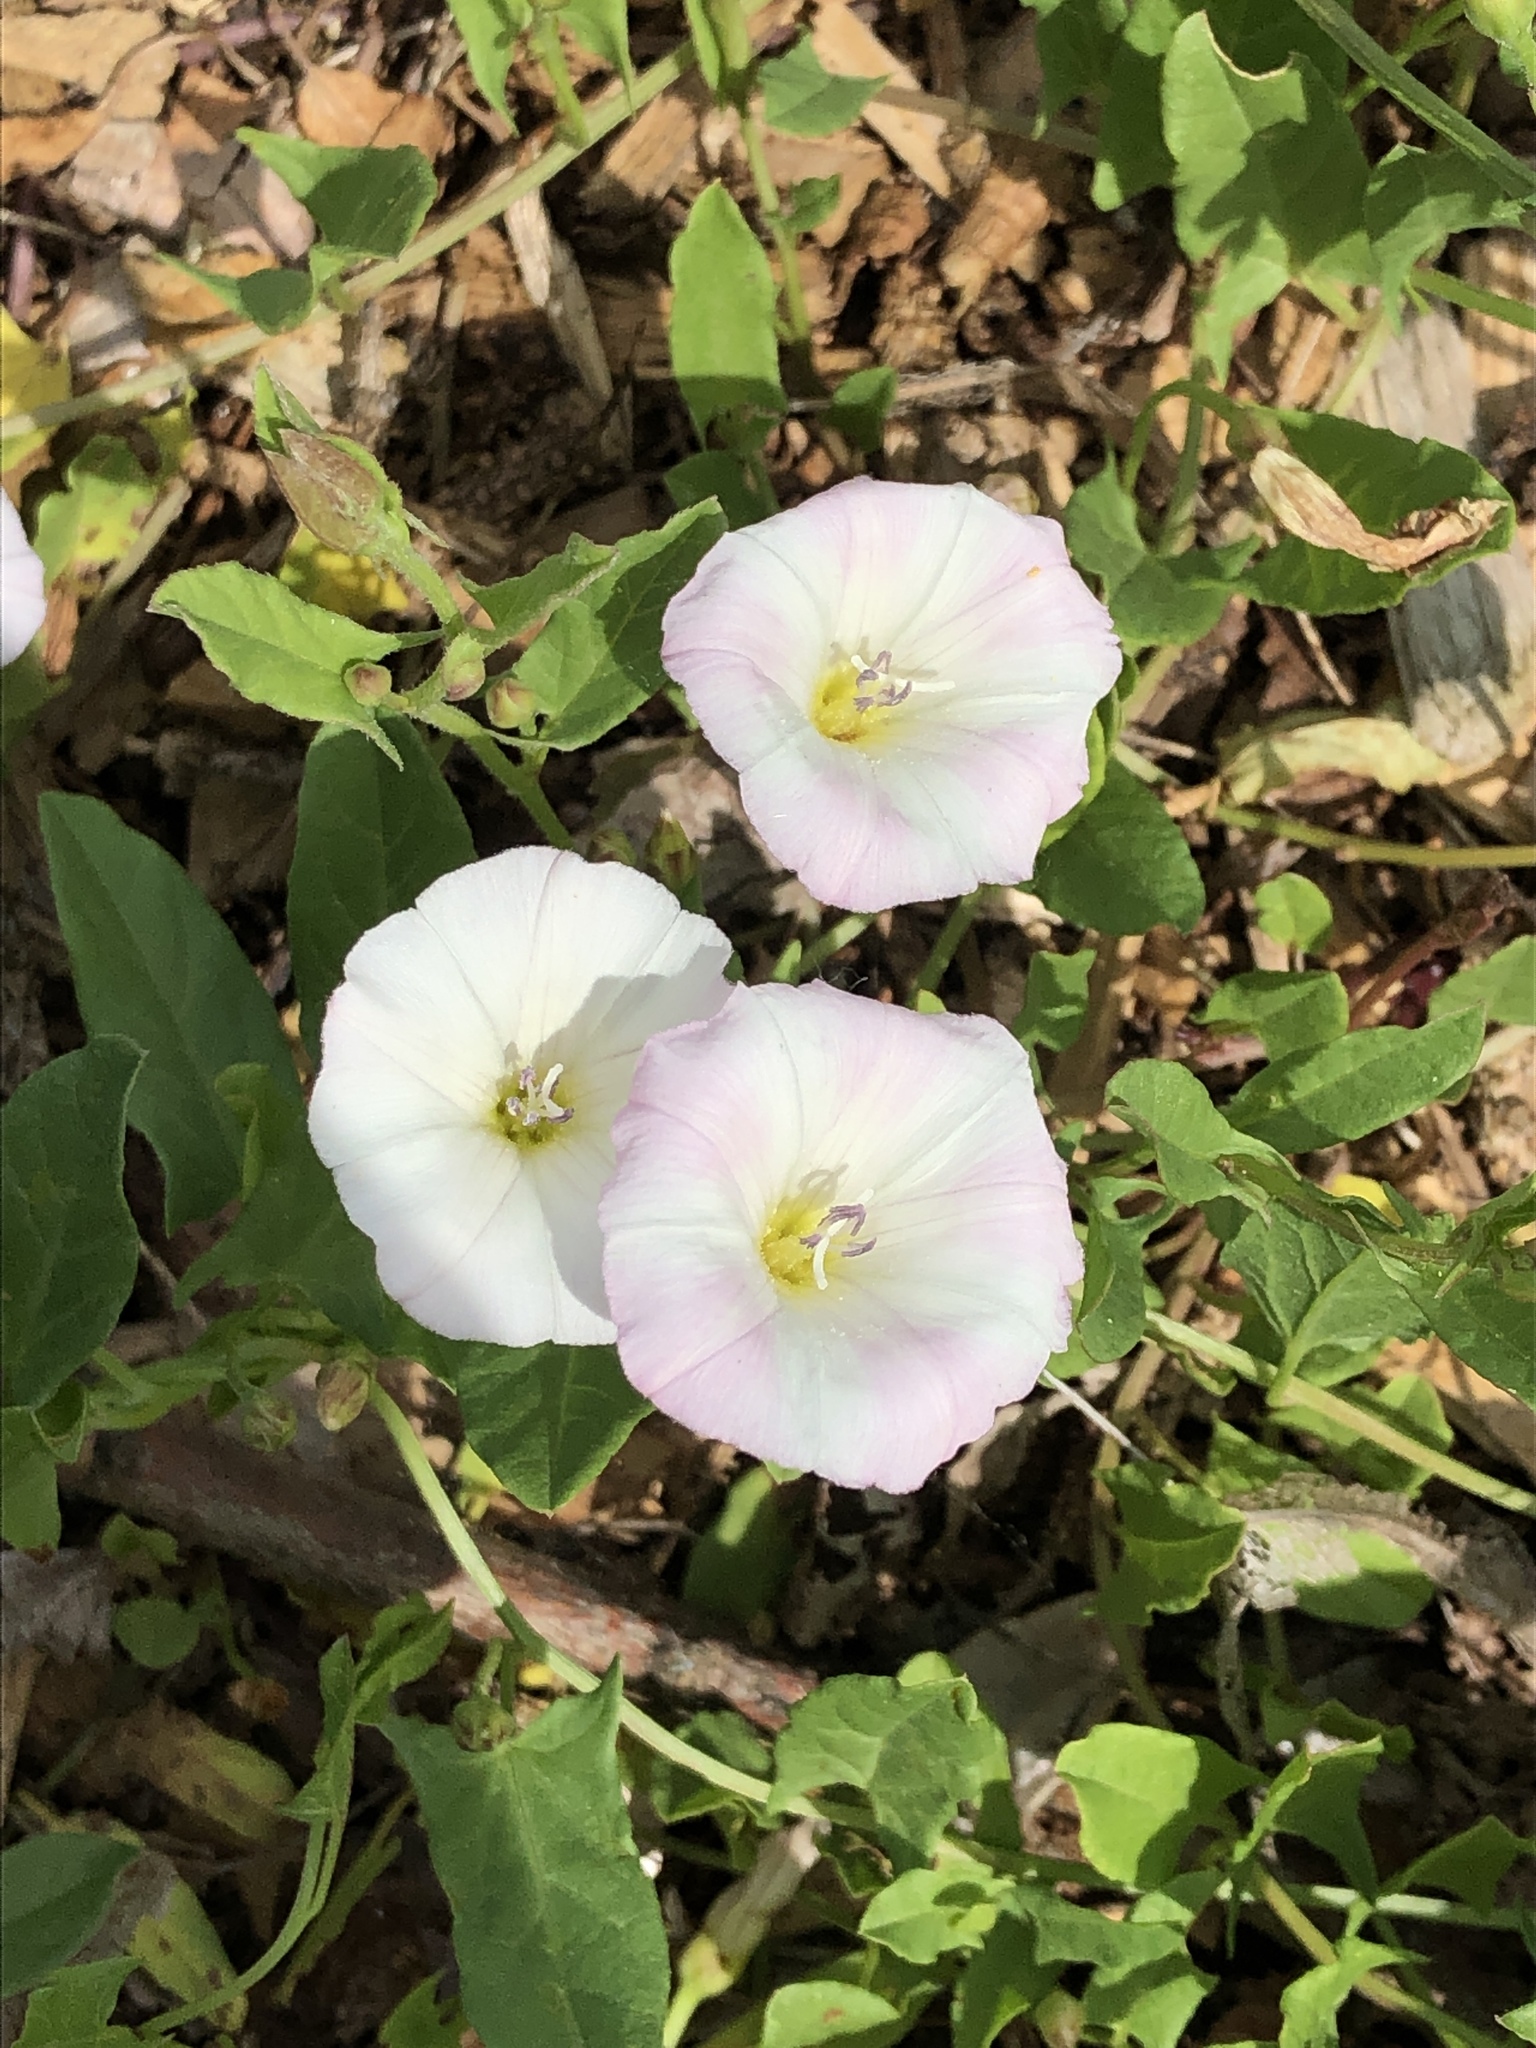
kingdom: Plantae
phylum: Tracheophyta
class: Magnoliopsida
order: Solanales
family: Convolvulaceae
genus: Convolvulus
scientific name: Convolvulus arvensis
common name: Field bindweed
